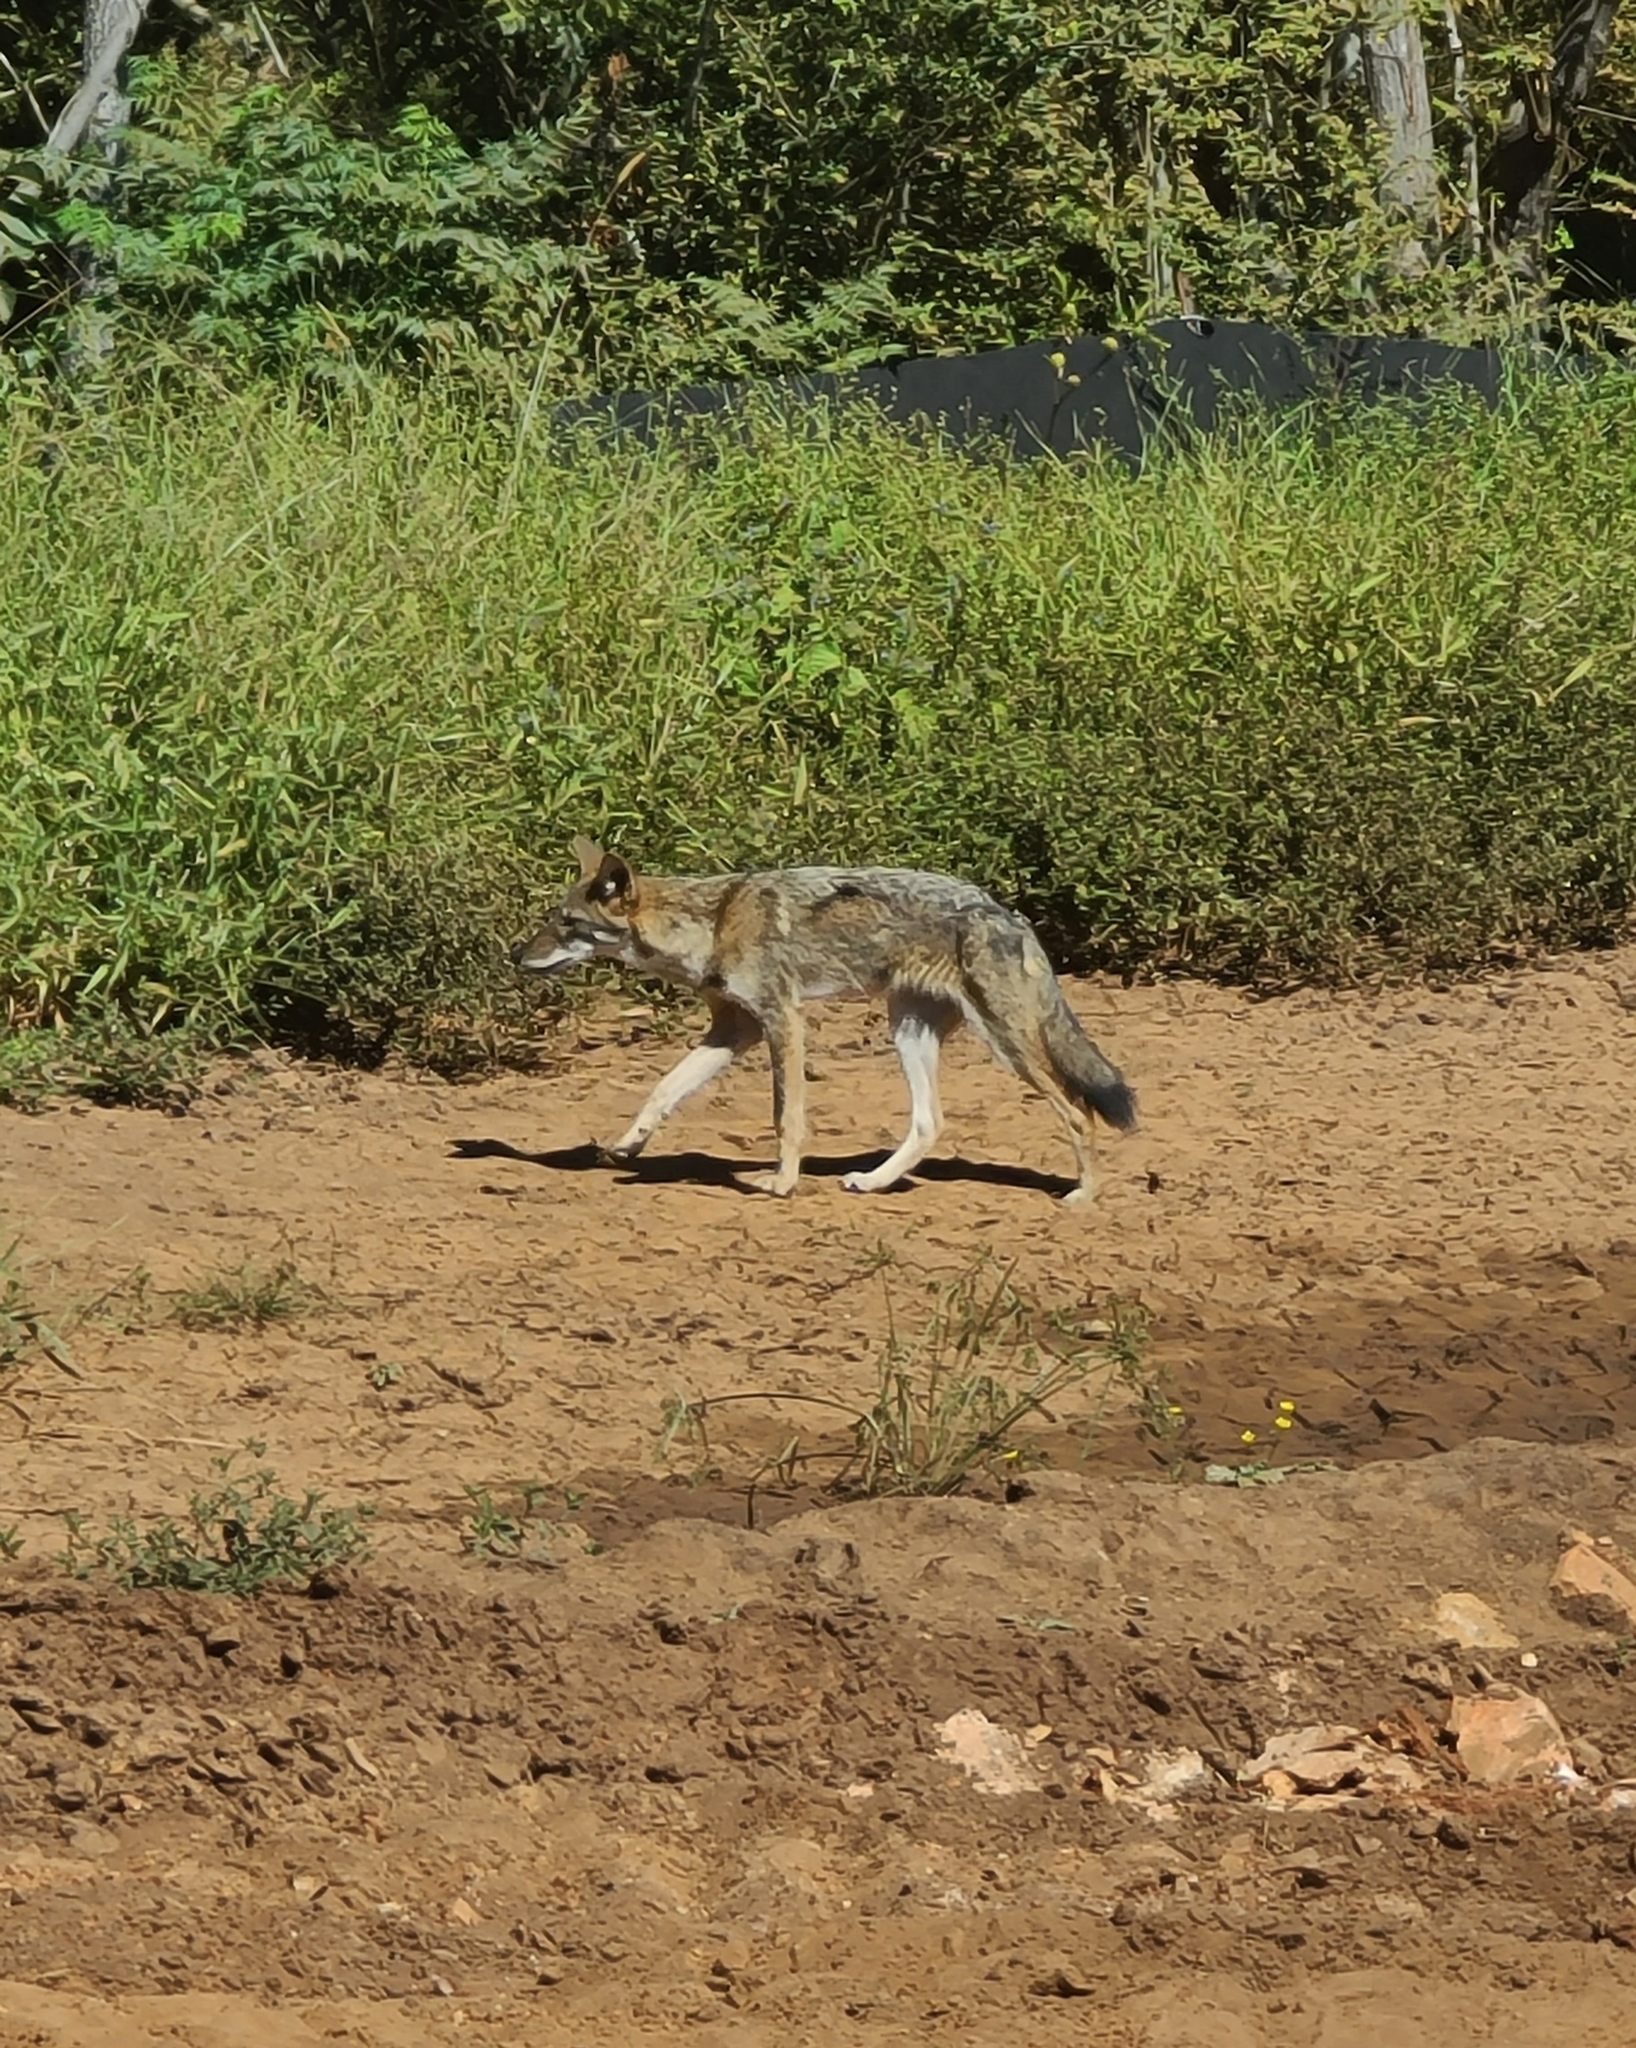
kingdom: Animalia
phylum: Chordata
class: Mammalia
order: Carnivora
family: Canidae
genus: Canis
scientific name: Canis latrans
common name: Coyote
